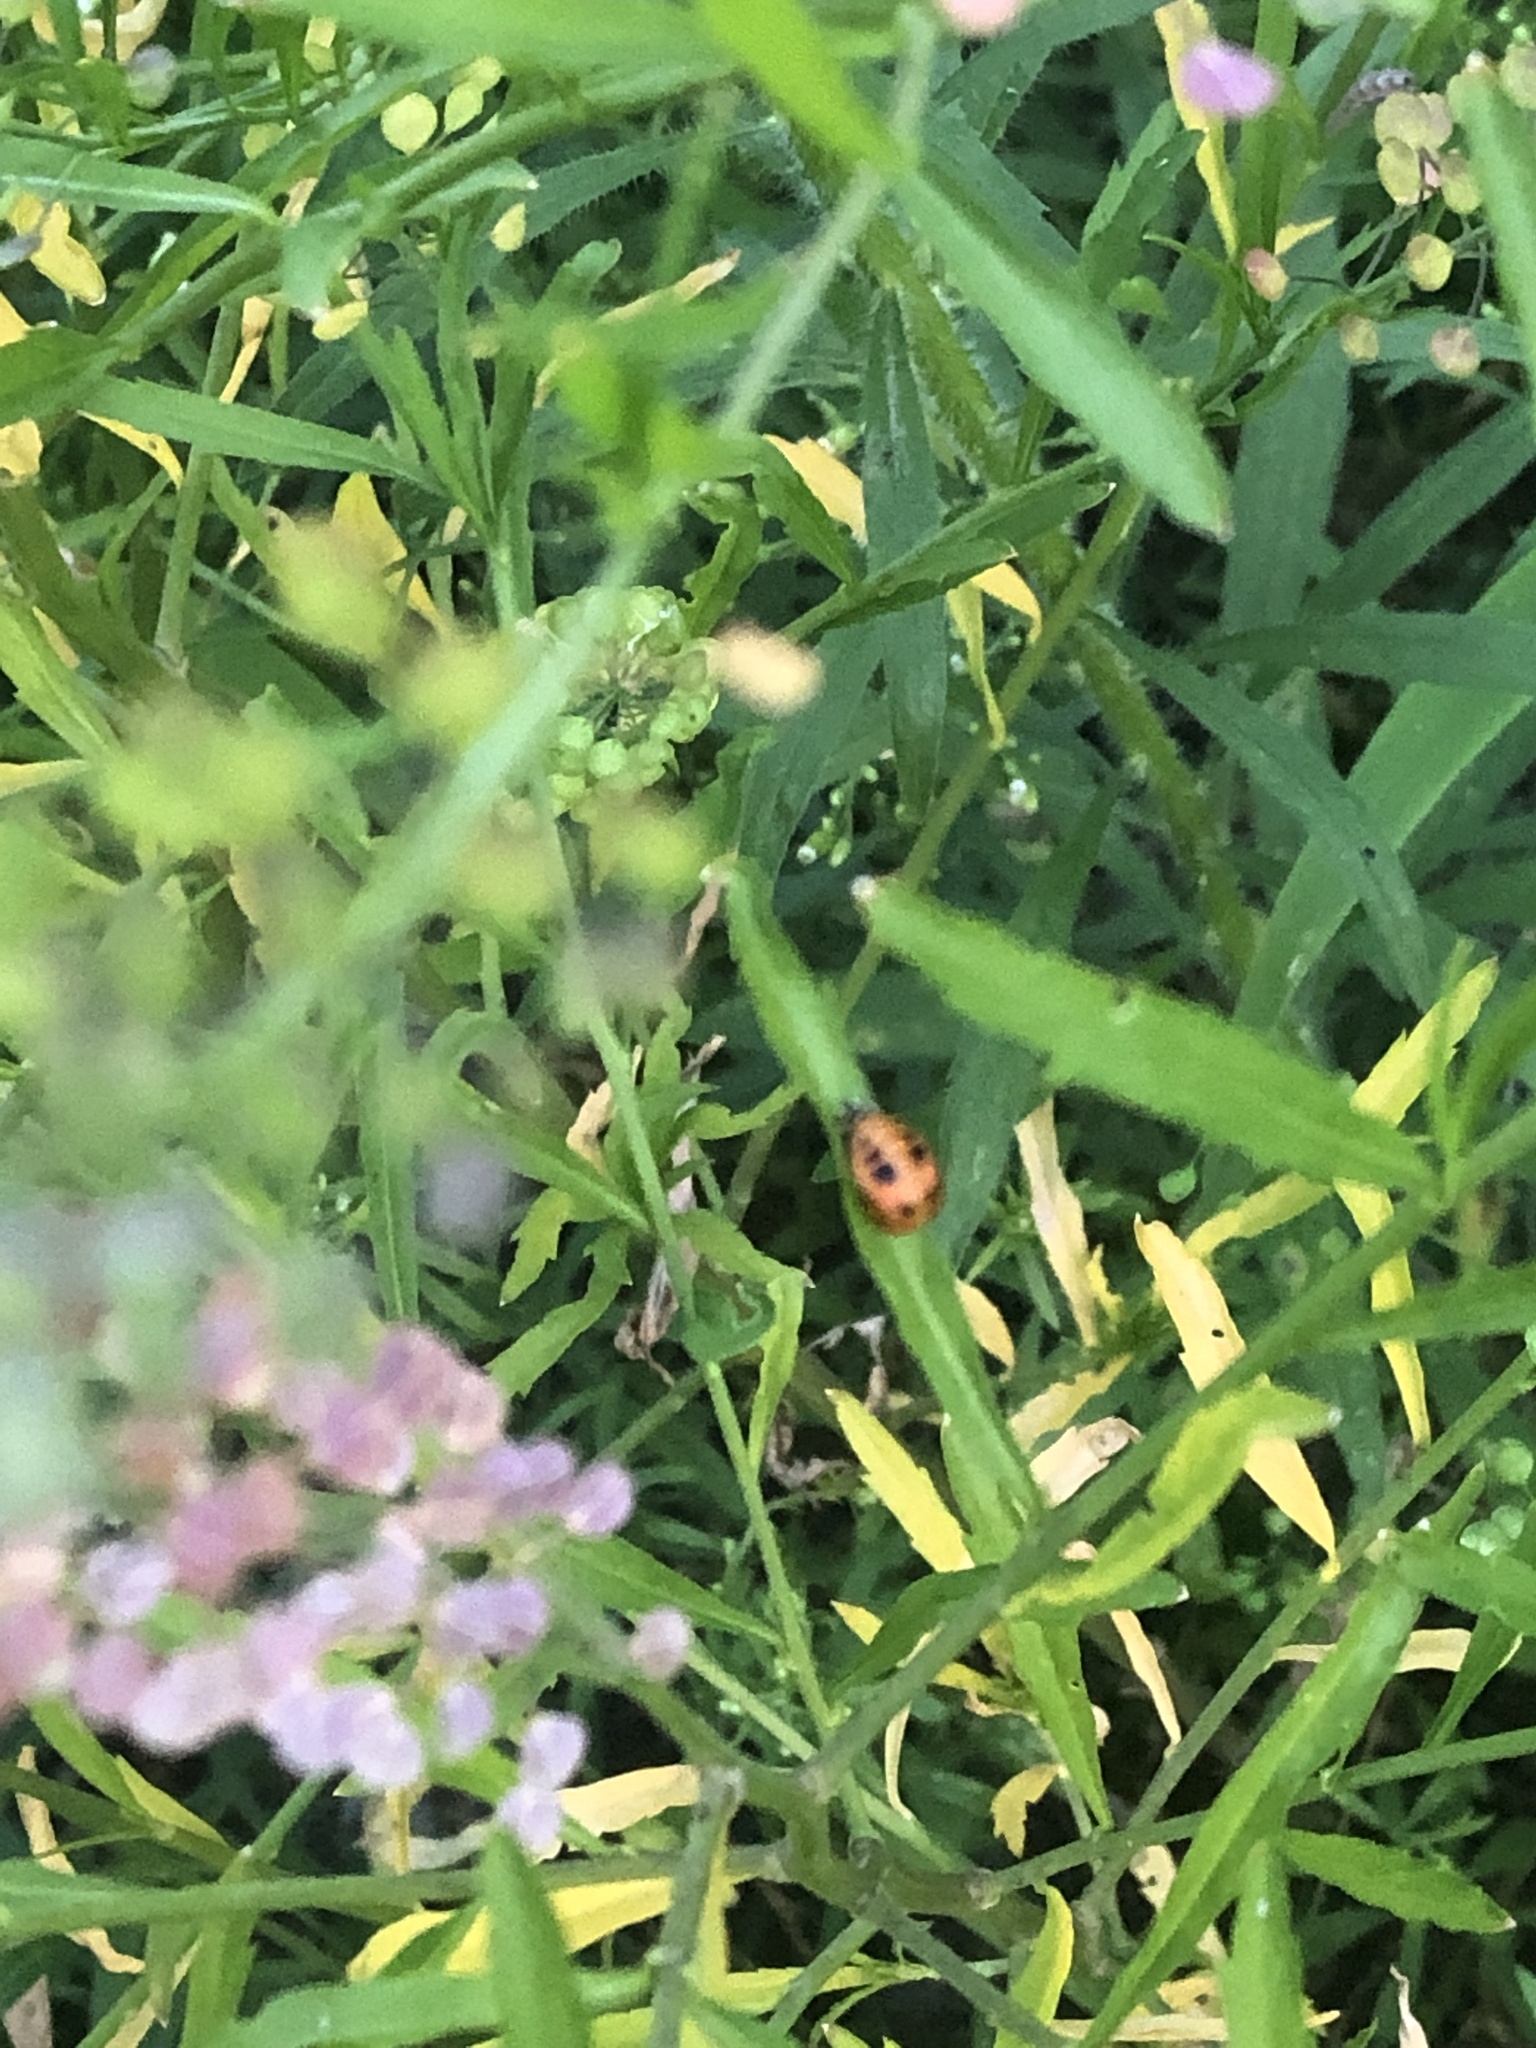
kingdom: Animalia
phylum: Arthropoda
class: Insecta
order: Coleoptera
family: Coccinellidae
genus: Harmonia
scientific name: Harmonia axyridis
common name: Harlequin ladybird
